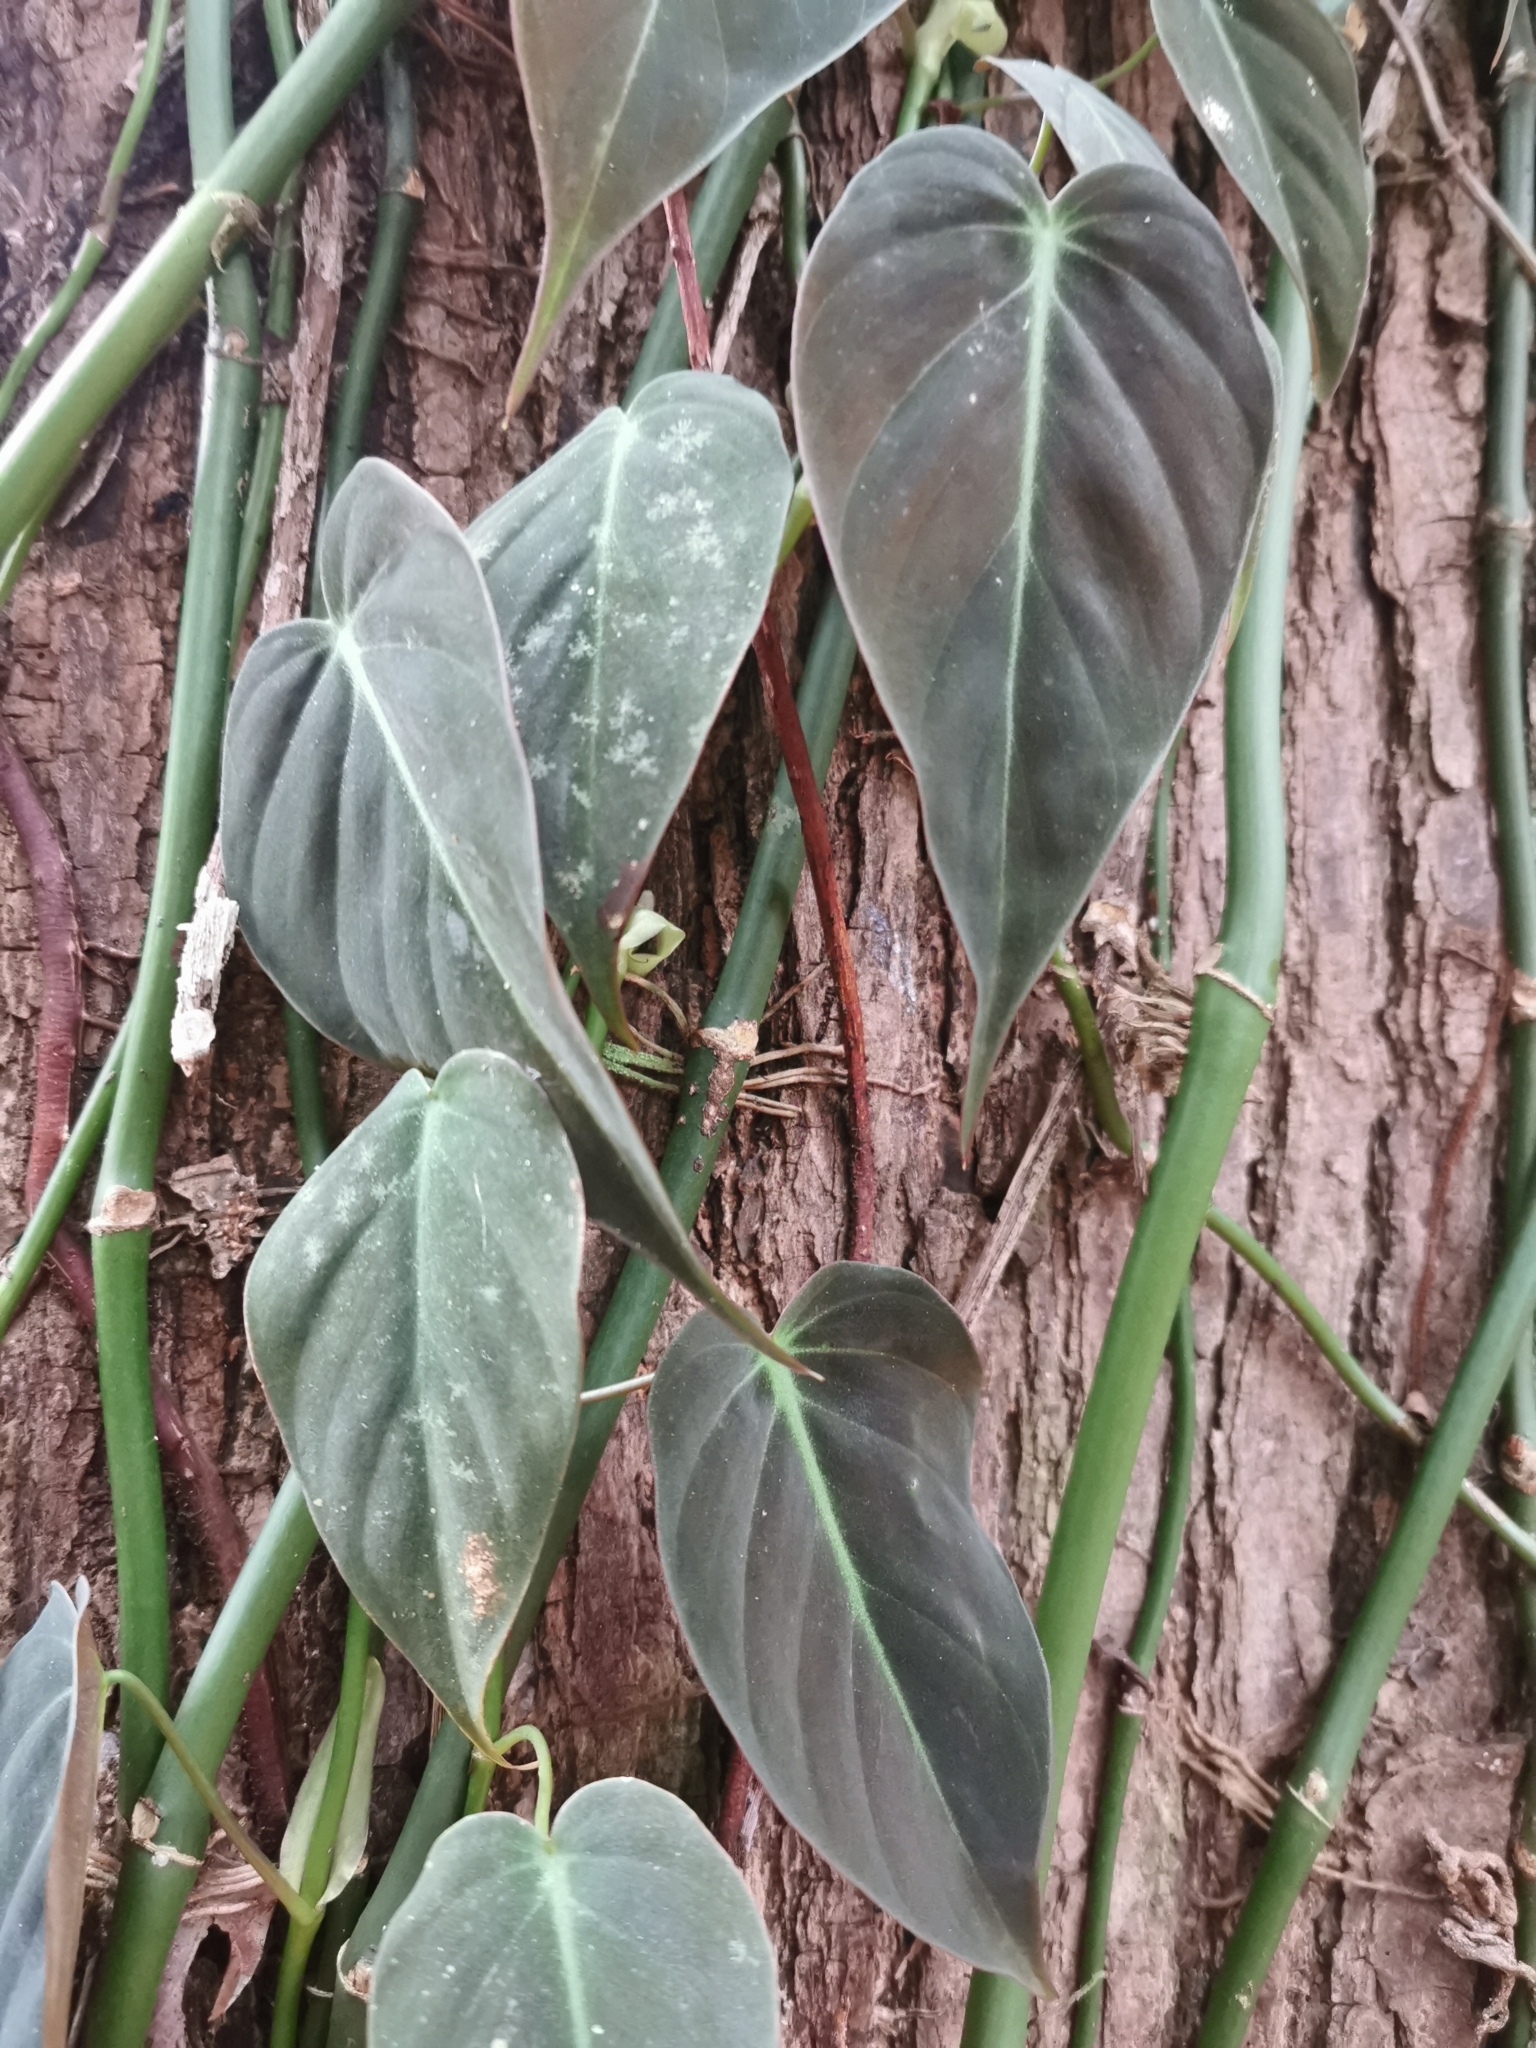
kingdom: Plantae
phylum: Tracheophyta
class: Liliopsida
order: Alismatales
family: Araceae
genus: Philodendron
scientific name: Philodendron hederaceum
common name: Vilevine
